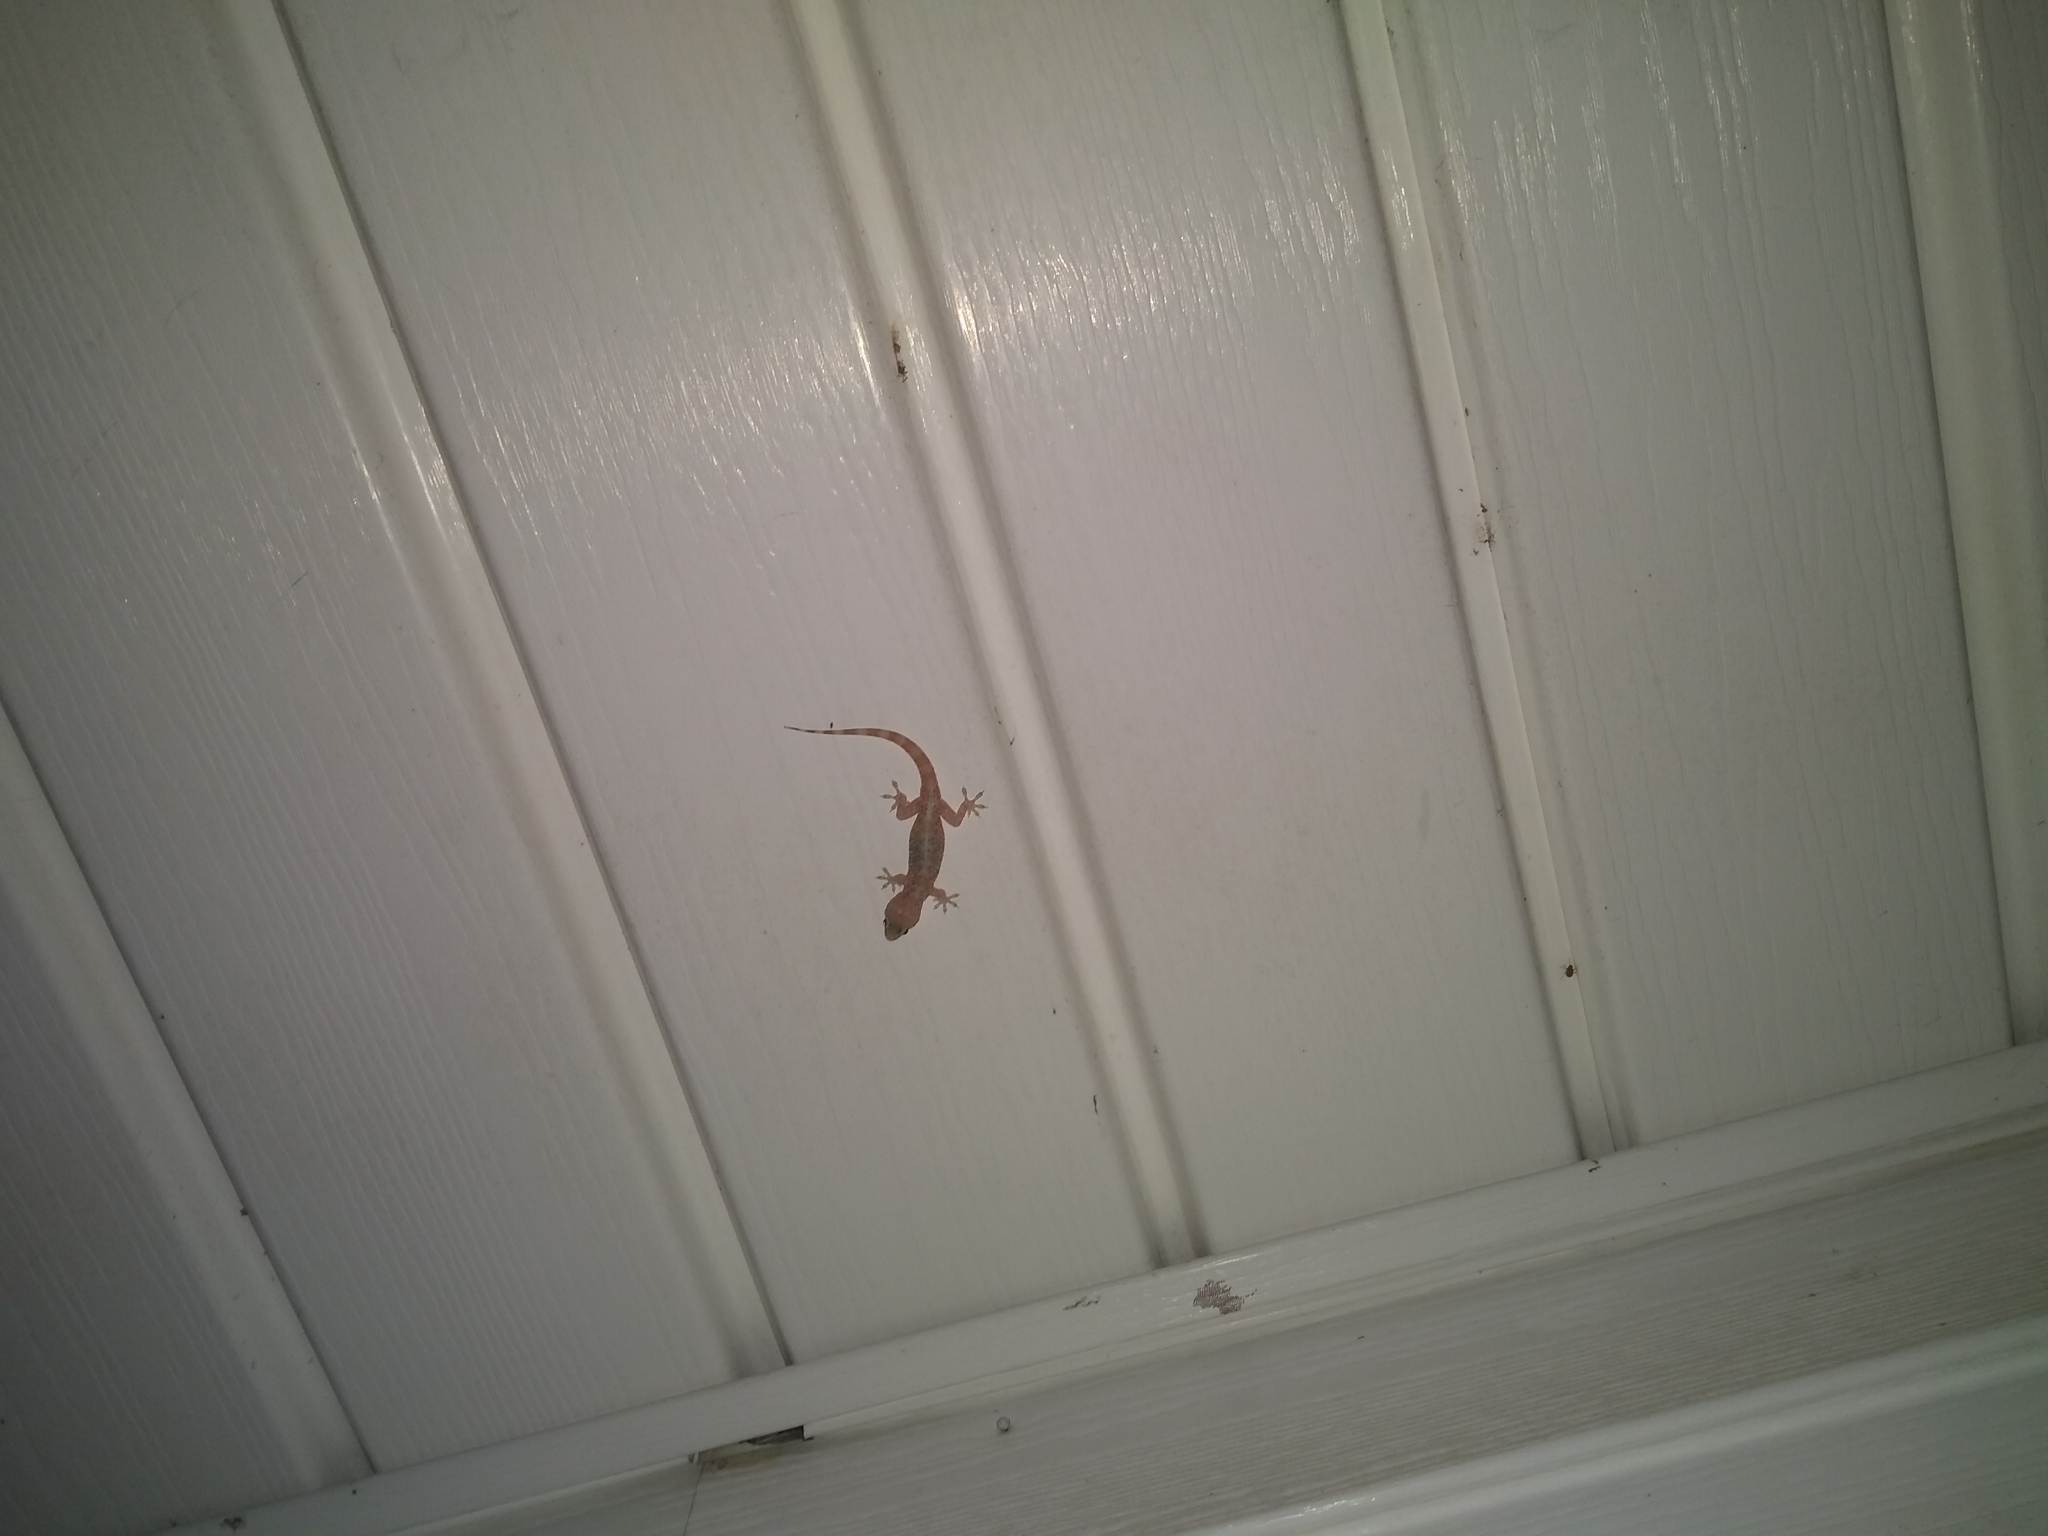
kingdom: Animalia
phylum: Chordata
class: Squamata
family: Gekkonidae
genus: Hemidactylus
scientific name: Hemidactylus turcicus
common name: Turkish gecko
